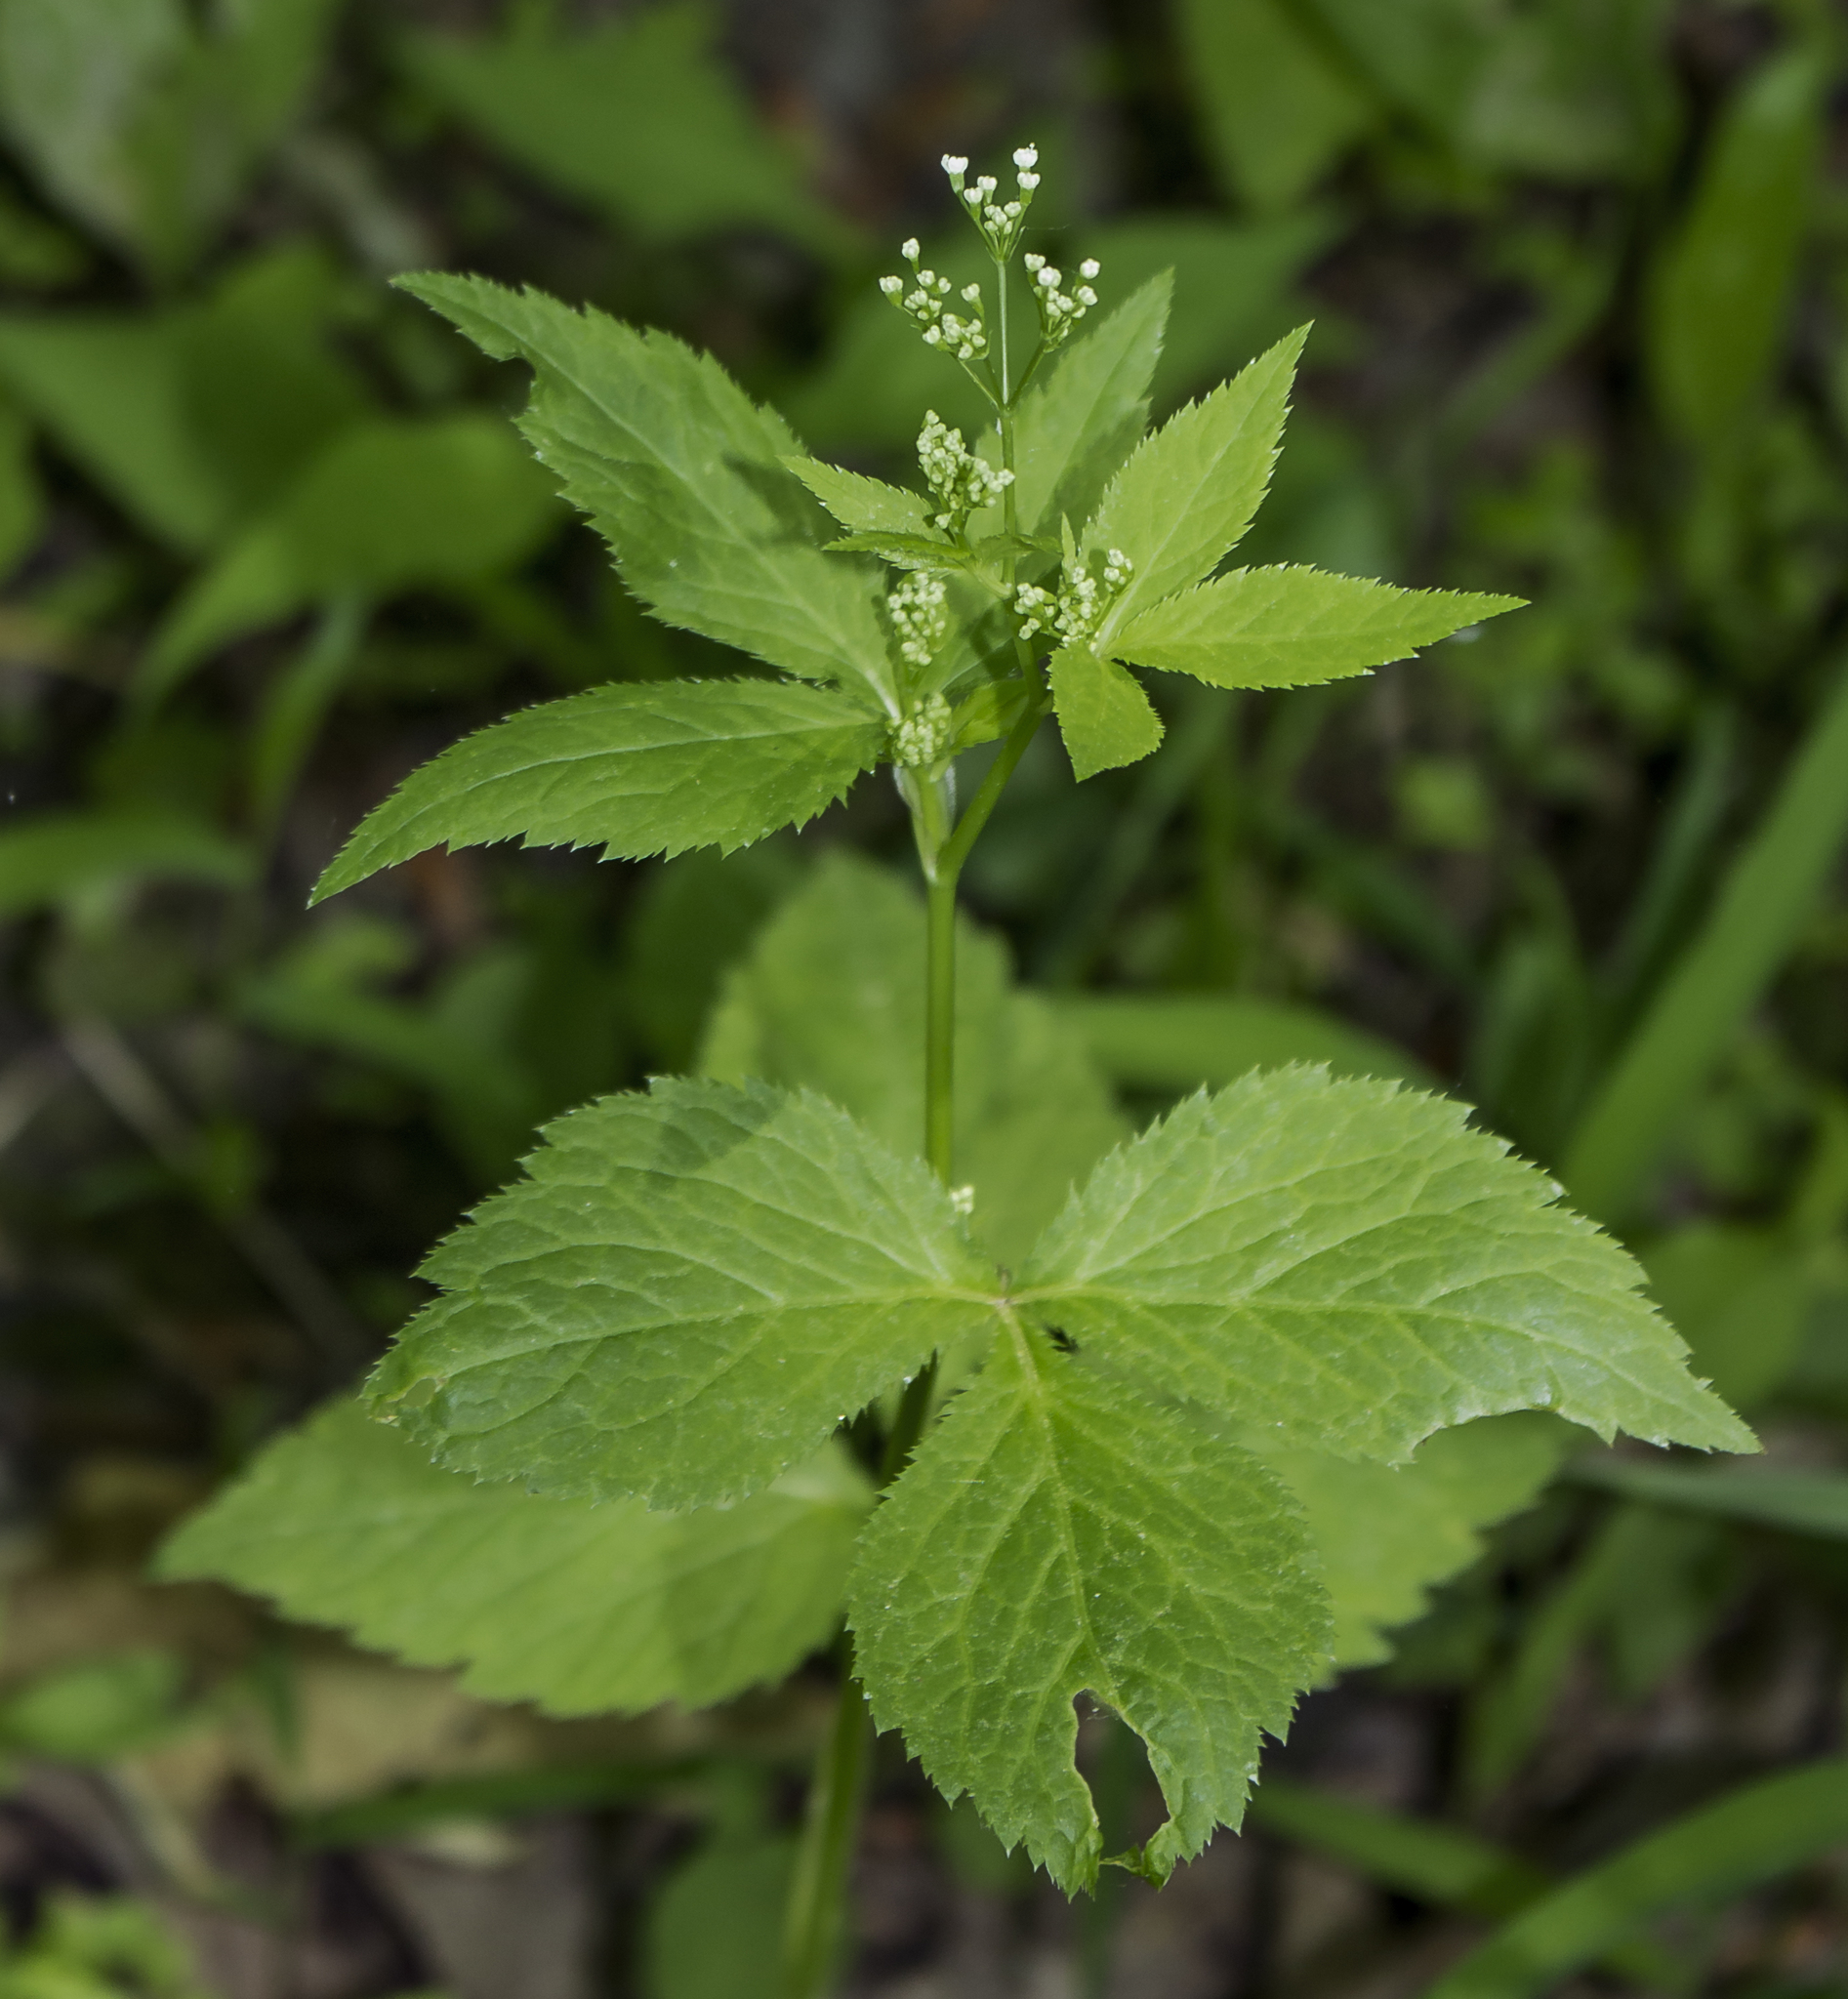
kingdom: Plantae
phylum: Tracheophyta
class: Magnoliopsida
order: Apiales
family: Apiaceae
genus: Cryptotaenia
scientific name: Cryptotaenia canadensis
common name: Honewort
